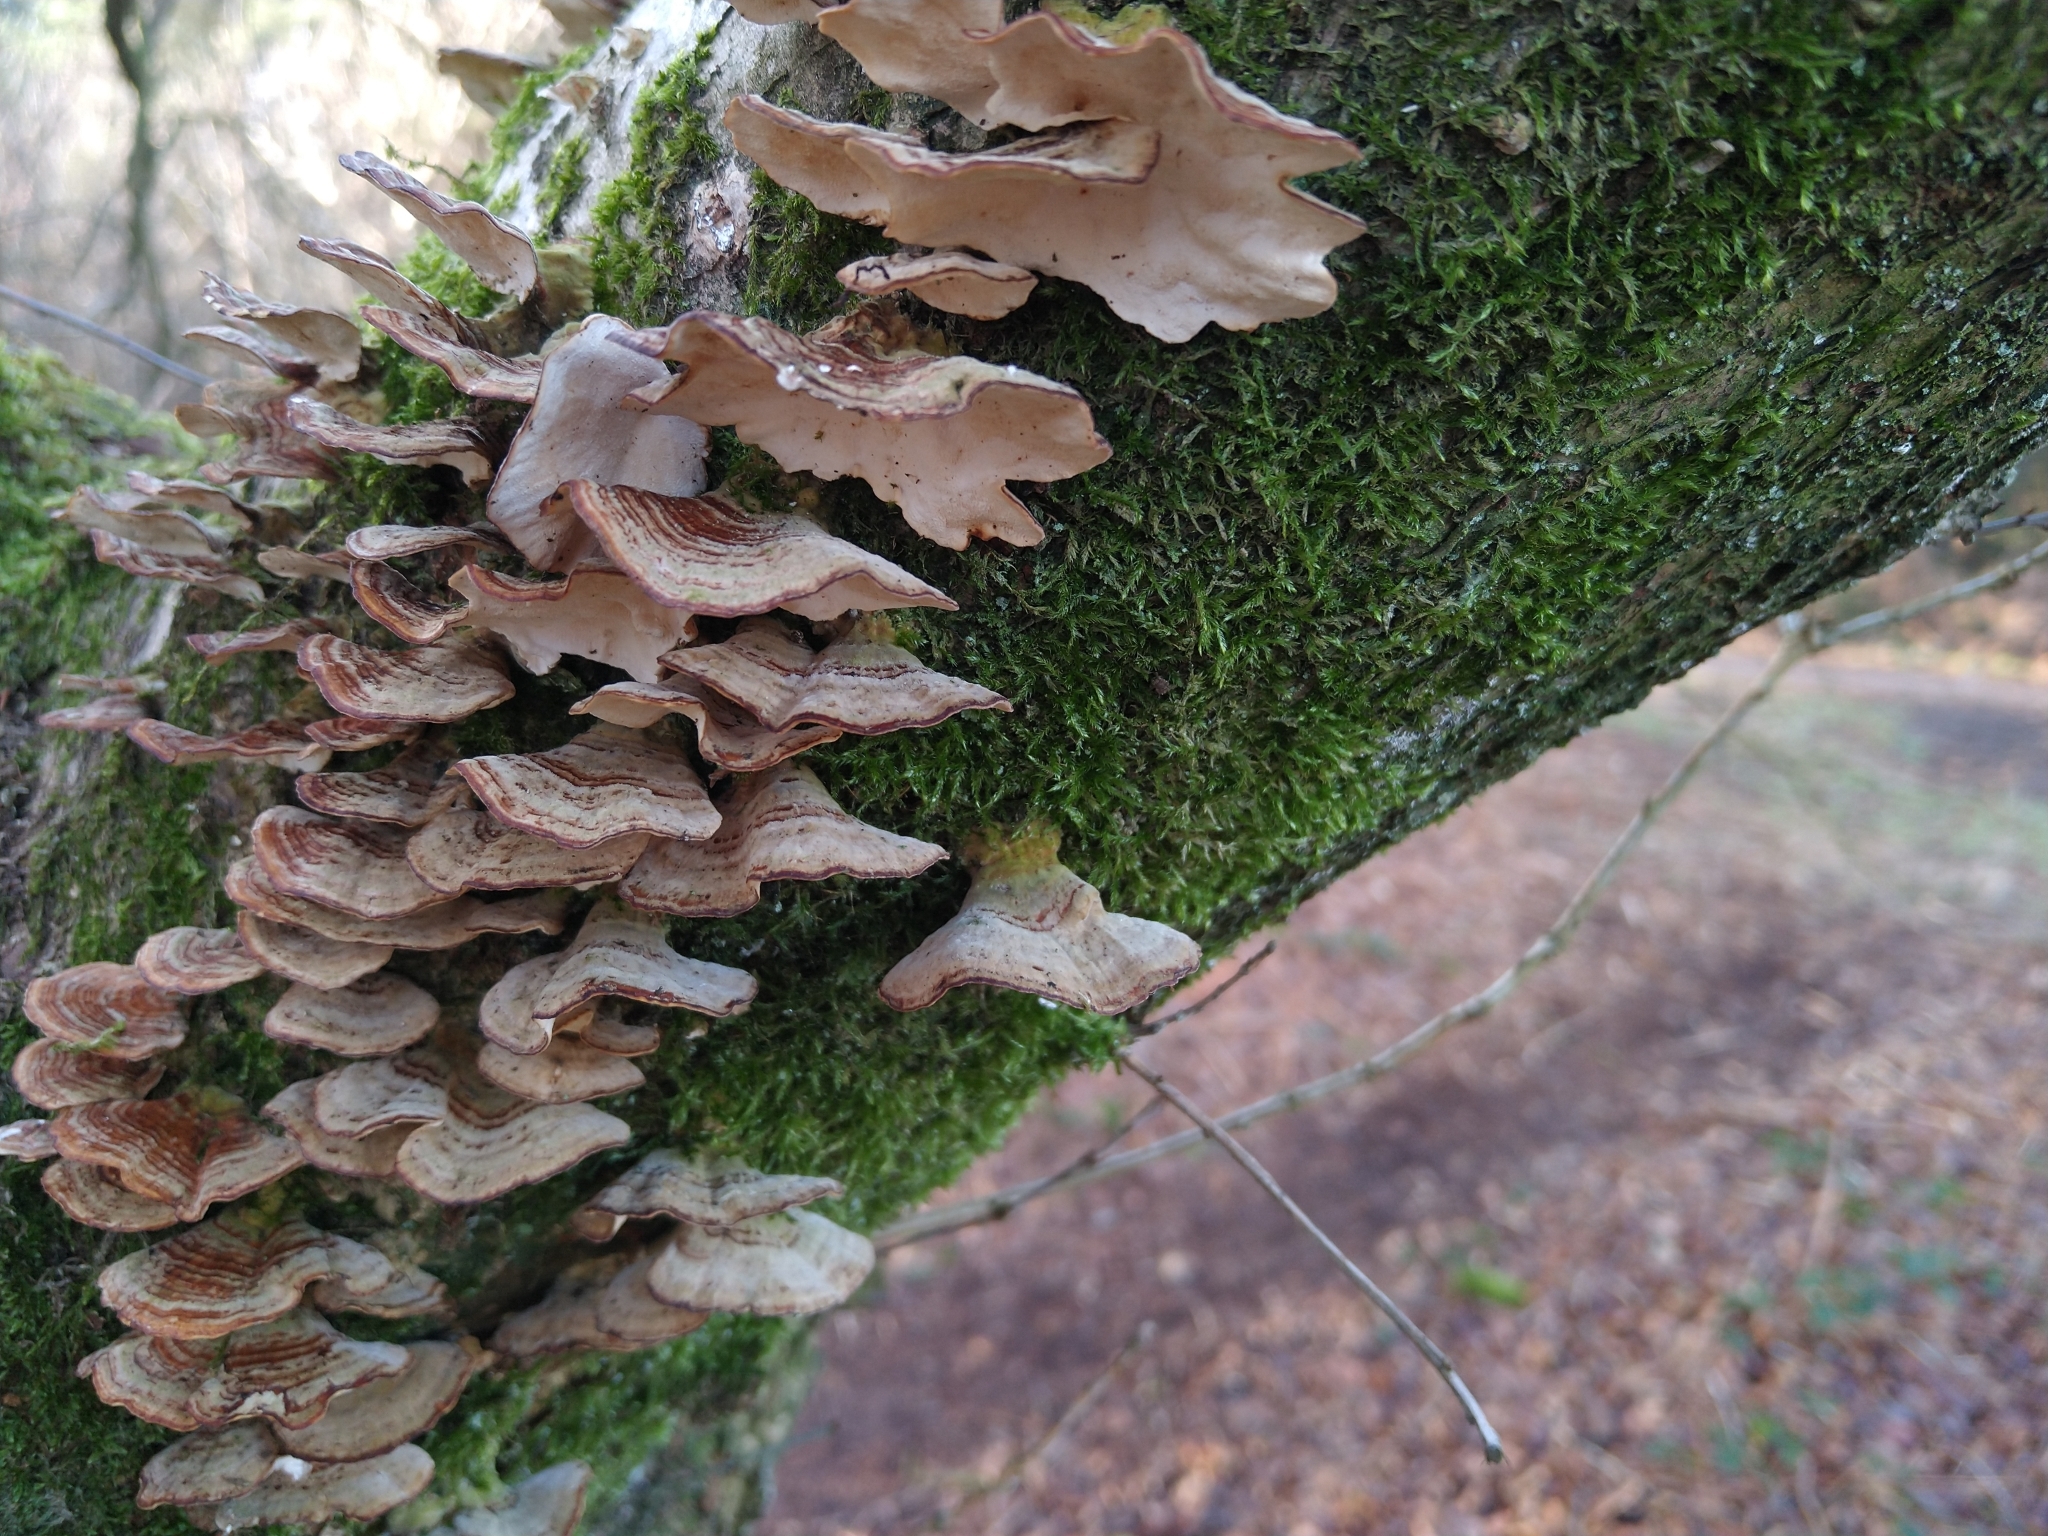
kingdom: Fungi
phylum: Basidiomycota
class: Agaricomycetes
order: Polyporales
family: Polyporaceae
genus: Trametes
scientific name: Trametes versicolor
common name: Turkeytail
